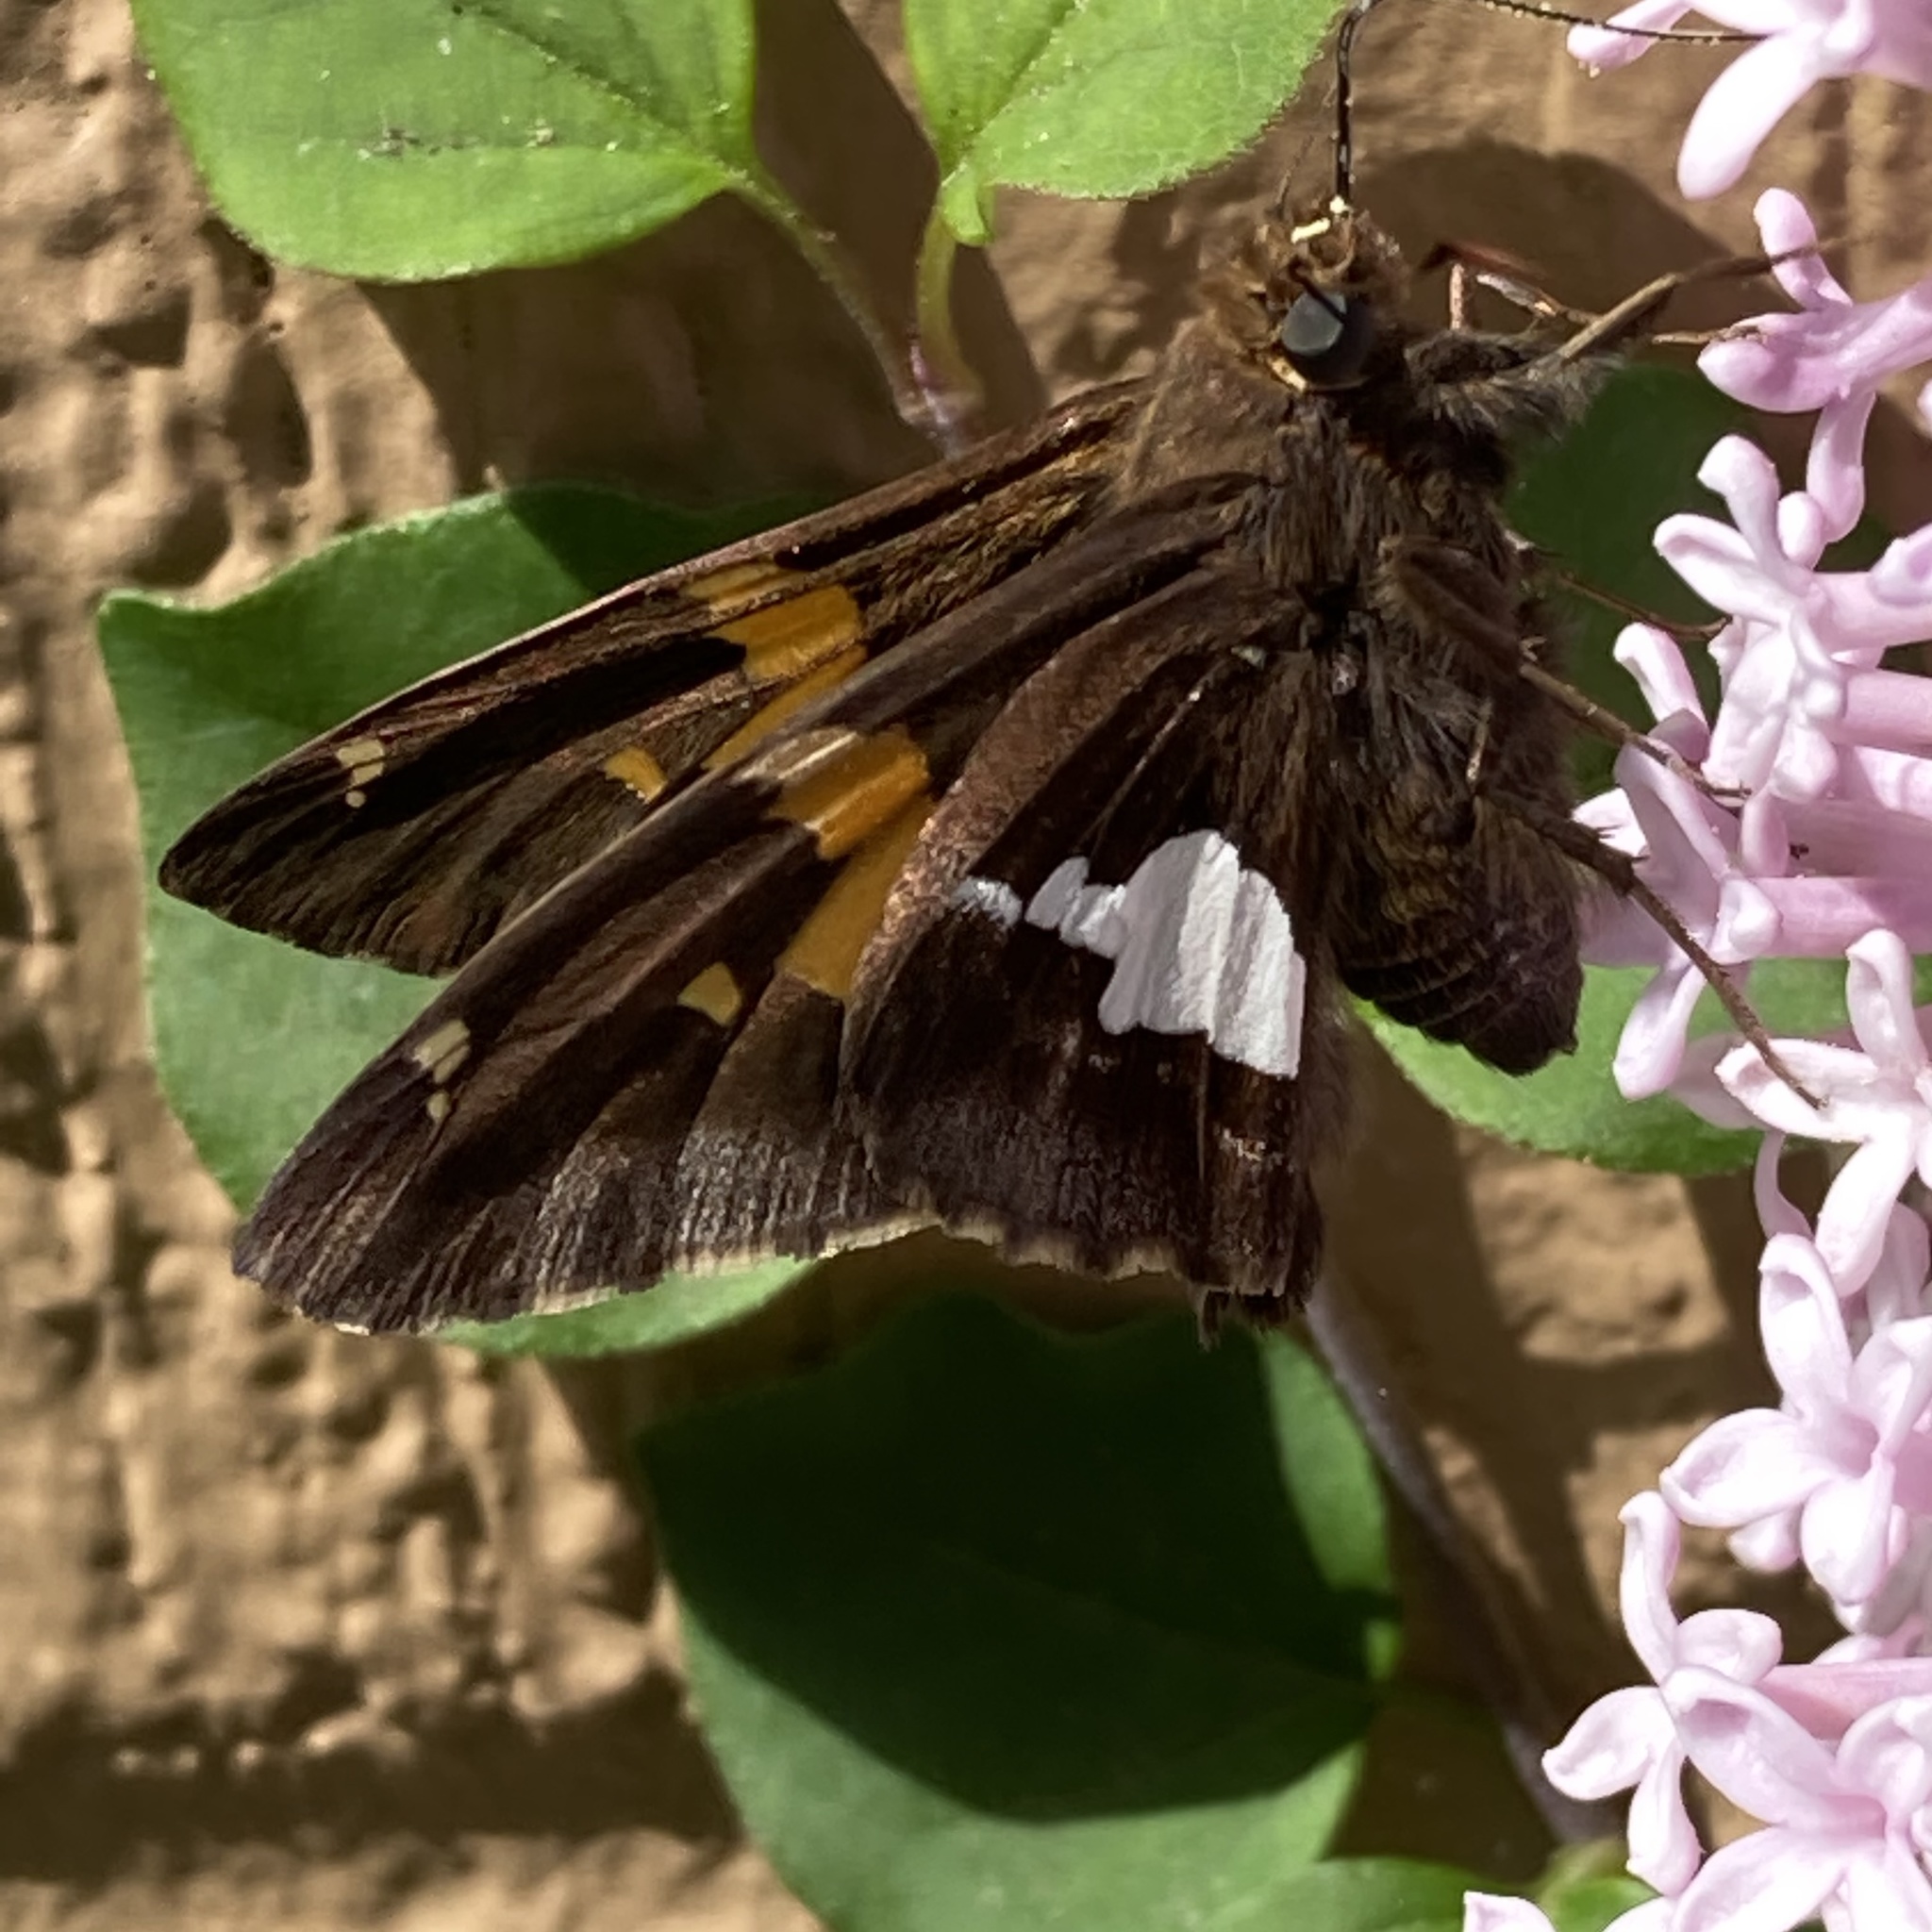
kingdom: Animalia
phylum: Arthropoda
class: Insecta
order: Lepidoptera
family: Hesperiidae
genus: Epargyreus
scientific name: Epargyreus clarus
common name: Silver-spotted skipper
